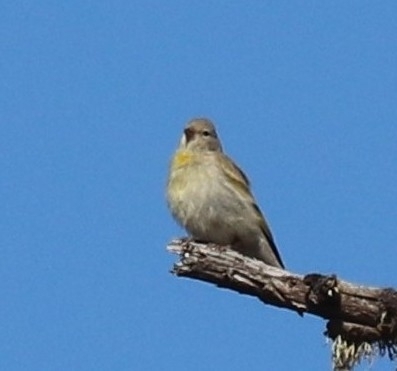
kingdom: Animalia
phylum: Chordata
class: Aves
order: Passeriformes
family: Fringillidae
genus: Spinus
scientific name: Spinus lawrencei
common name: Lawrence's goldfinch
